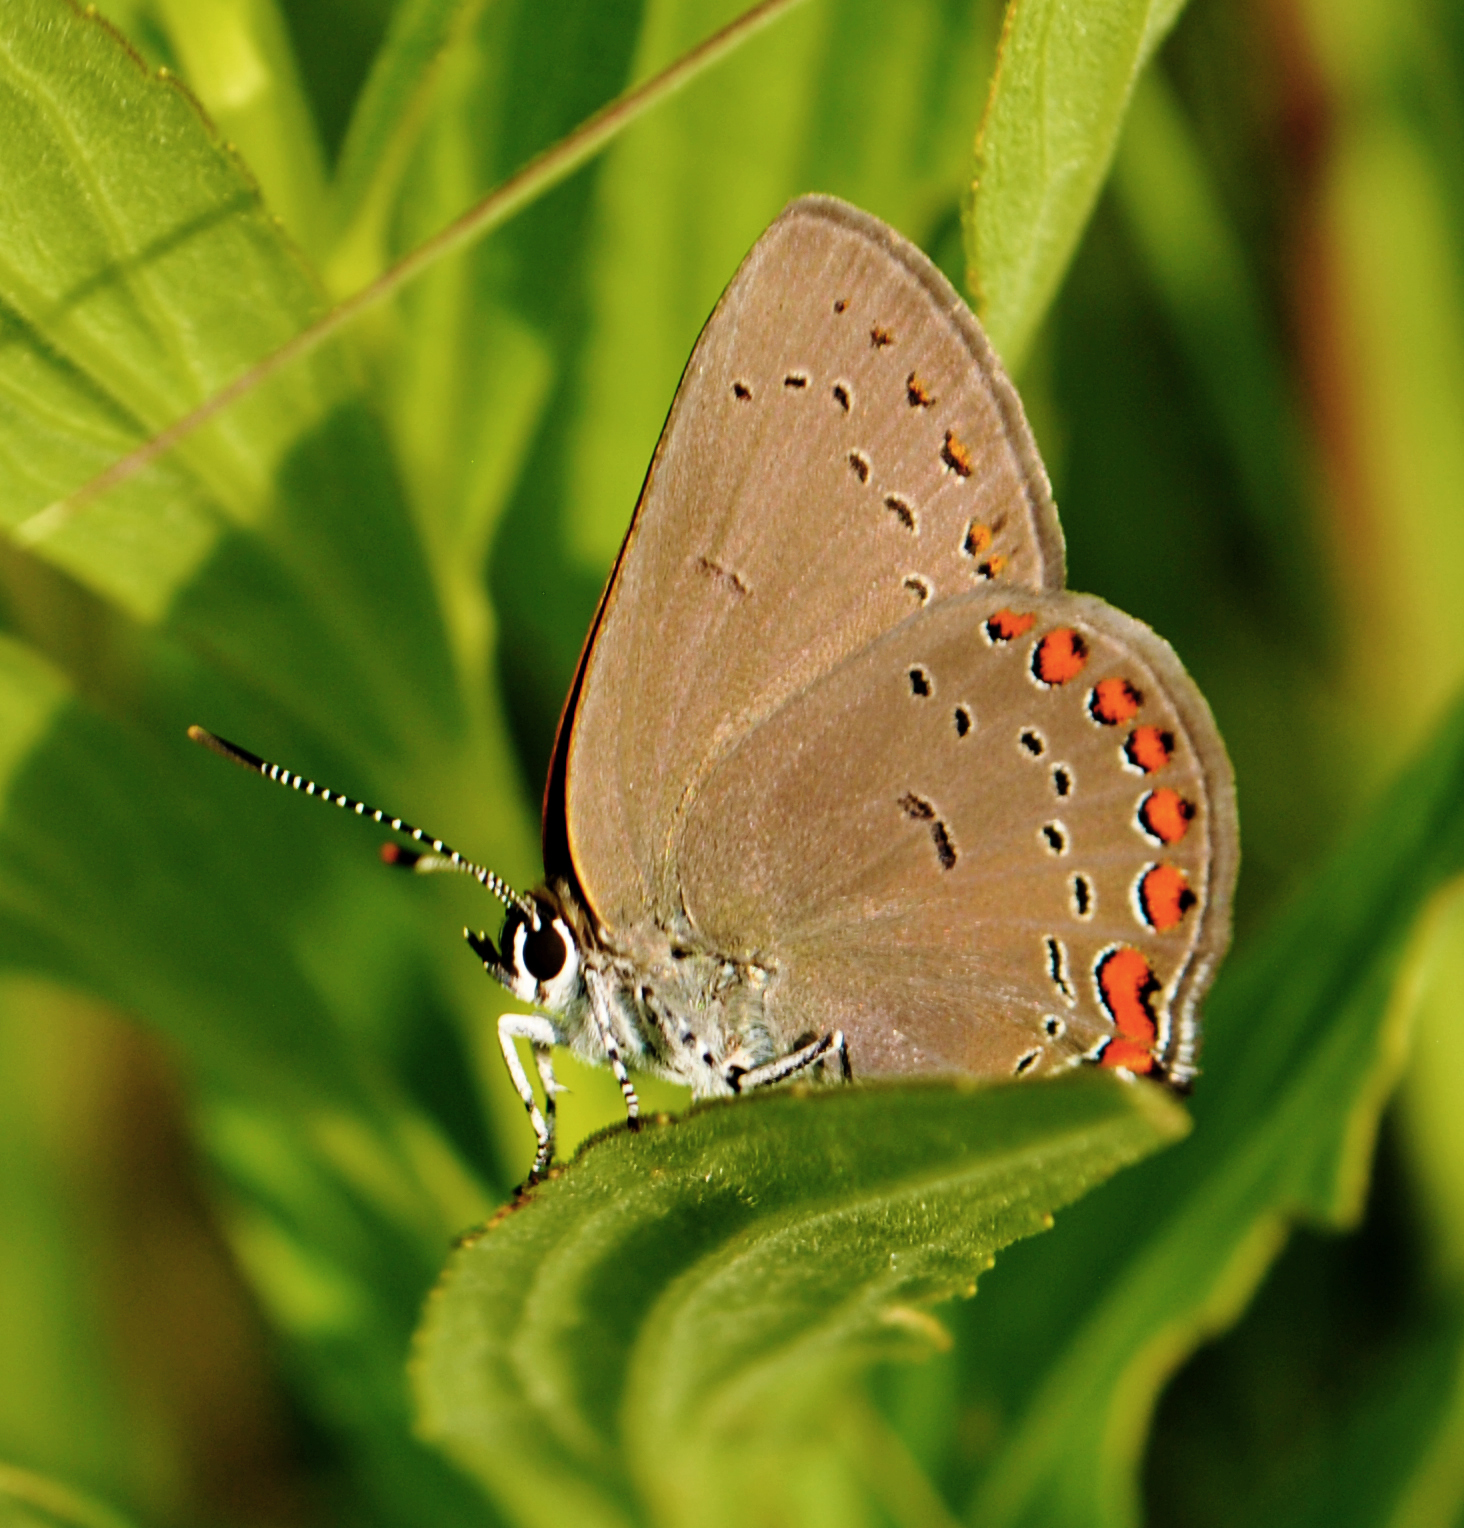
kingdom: Animalia
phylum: Arthropoda
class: Insecta
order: Lepidoptera
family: Lycaenidae
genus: Harkenclenus
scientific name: Harkenclenus titus
